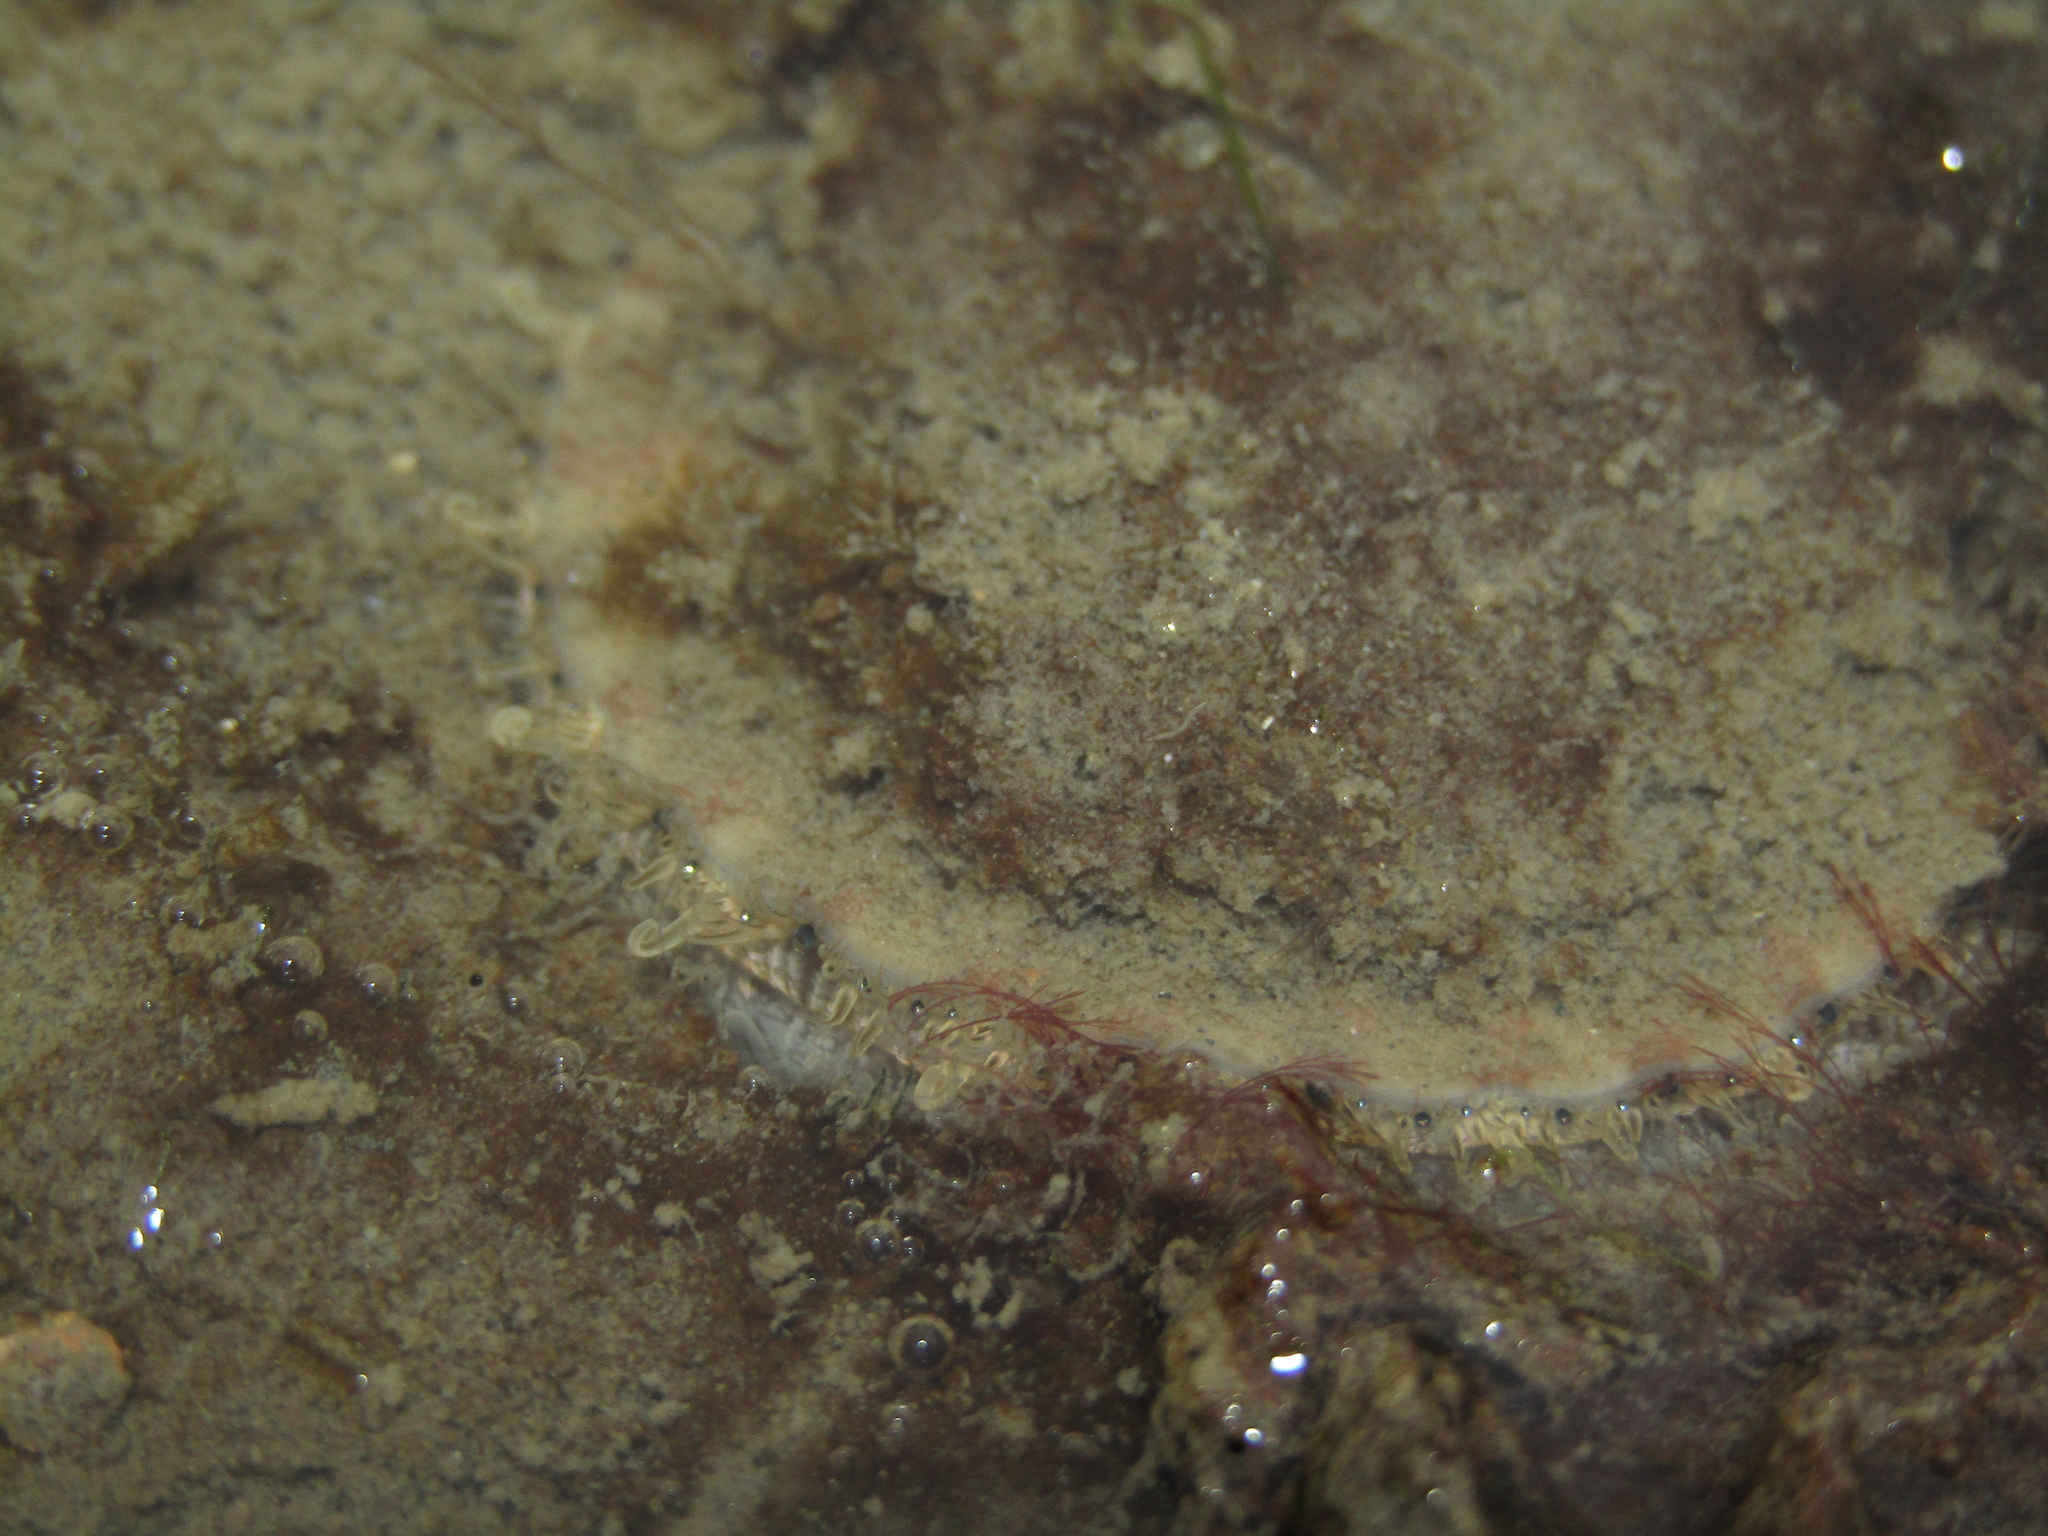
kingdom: Animalia
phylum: Mollusca
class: Bivalvia
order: Pectinida
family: Pectinidae
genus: Pecten
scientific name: Pecten novaezelandiae
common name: New zealand scallop
